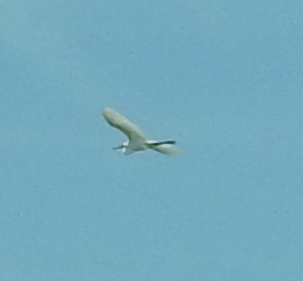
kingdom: Animalia
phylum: Chordata
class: Aves
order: Pelecaniformes
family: Ardeidae
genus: Ardea
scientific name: Ardea alba
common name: Great egret
